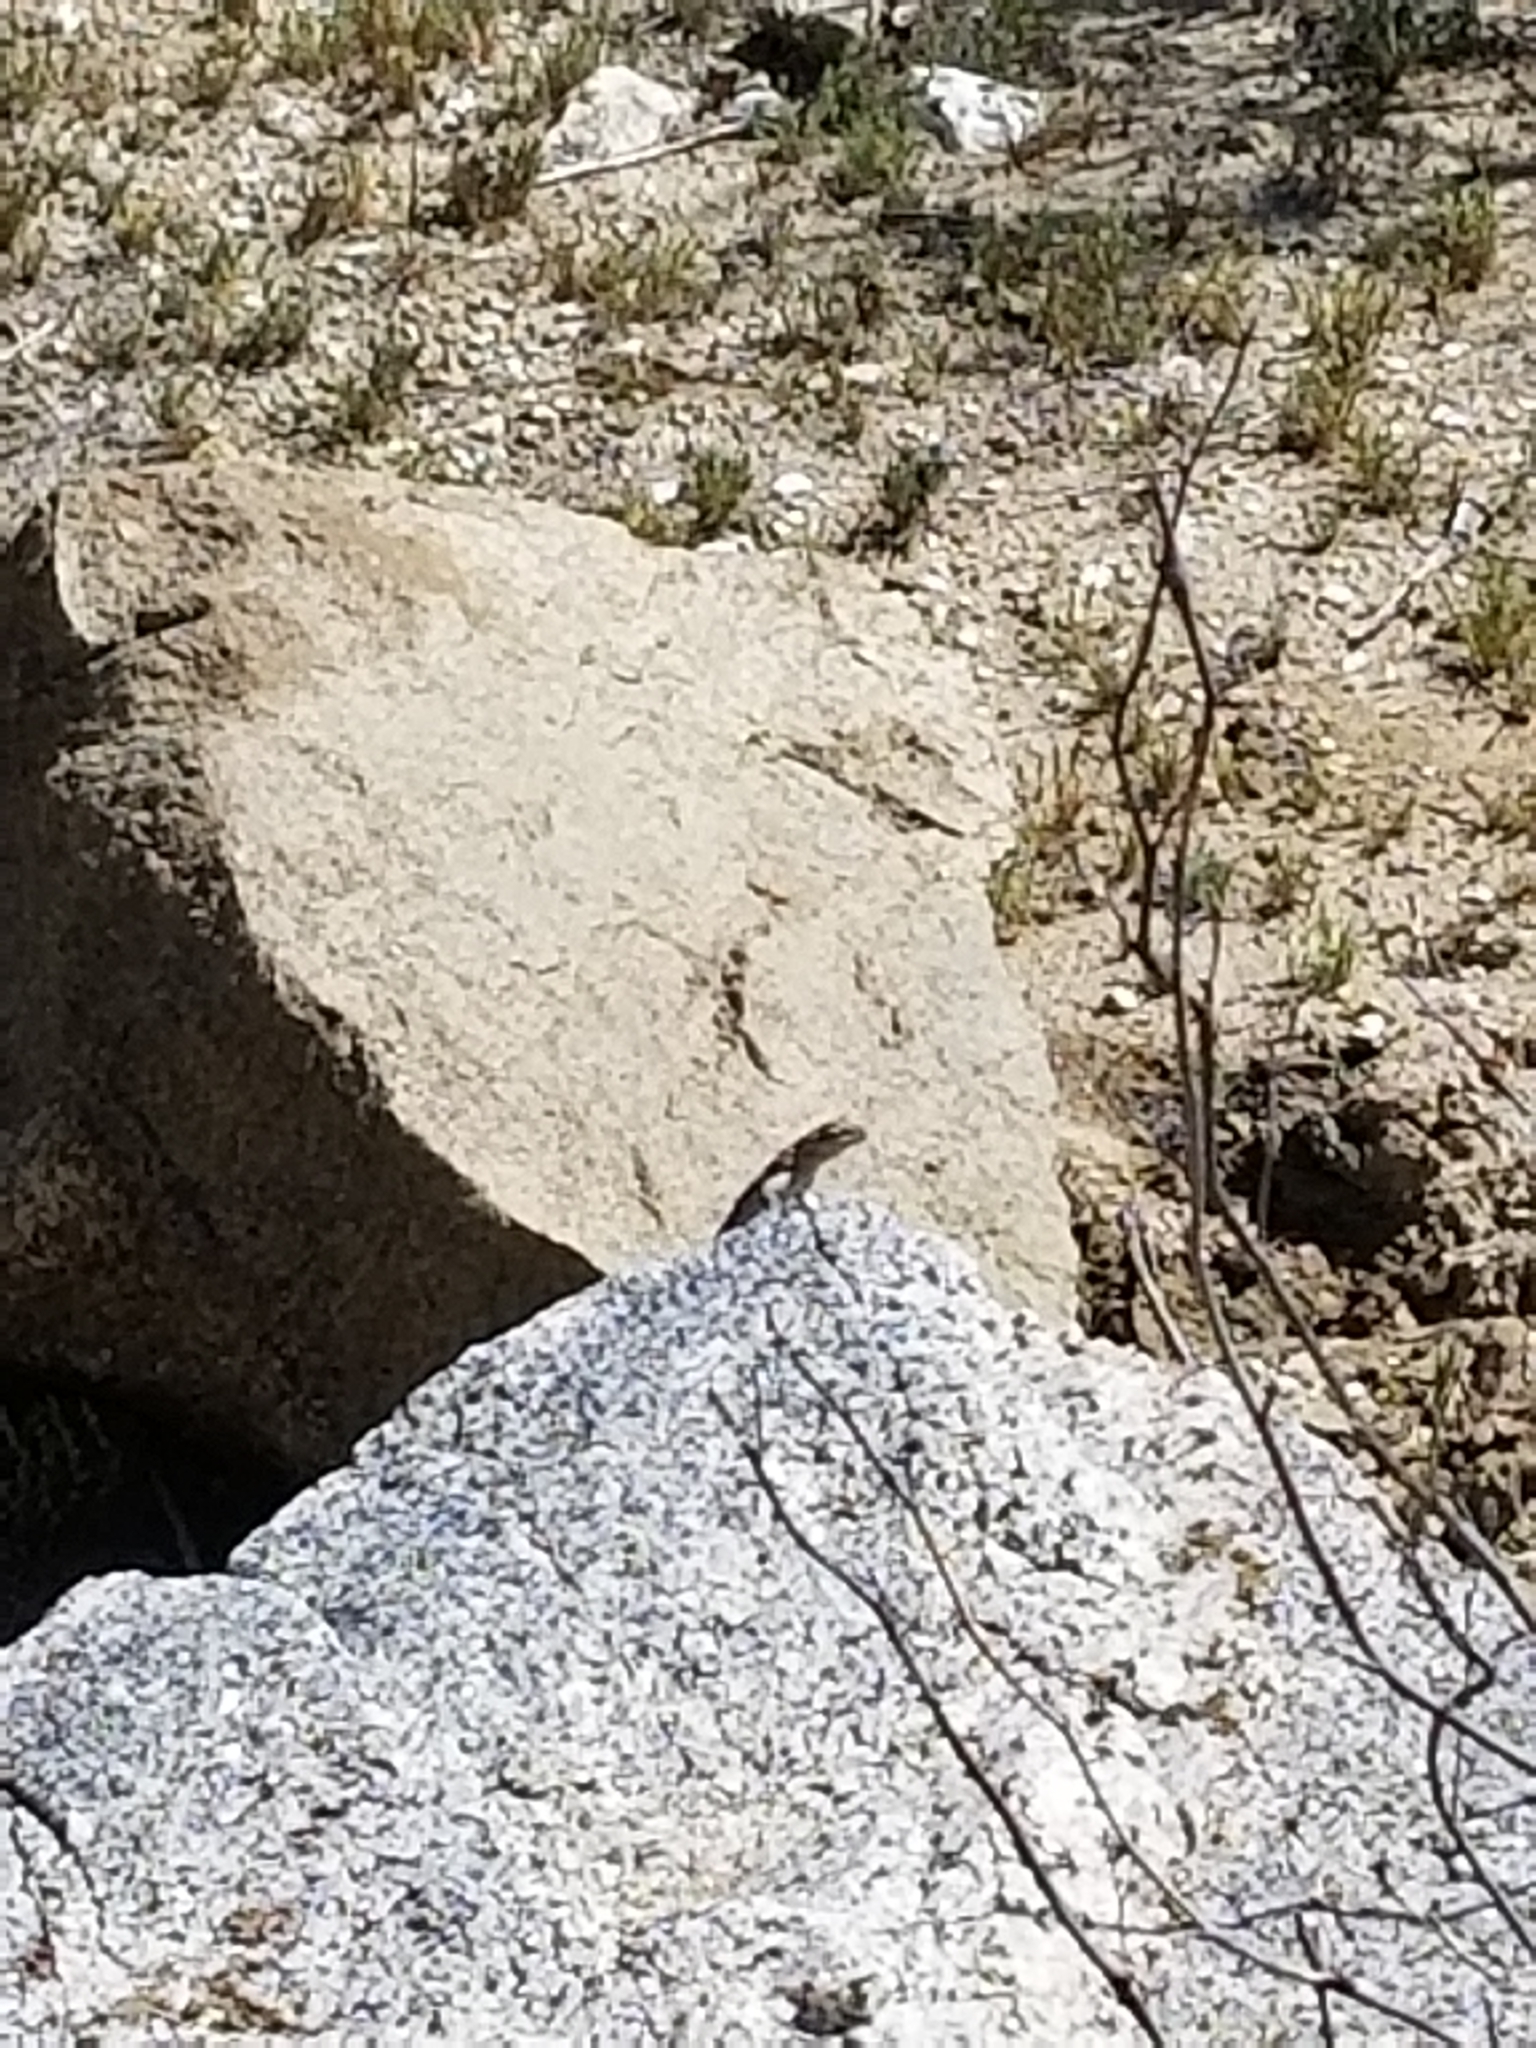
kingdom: Animalia
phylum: Chordata
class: Squamata
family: Phrynosomatidae
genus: Uta
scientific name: Uta stansburiana
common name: Side-blotched lizard
